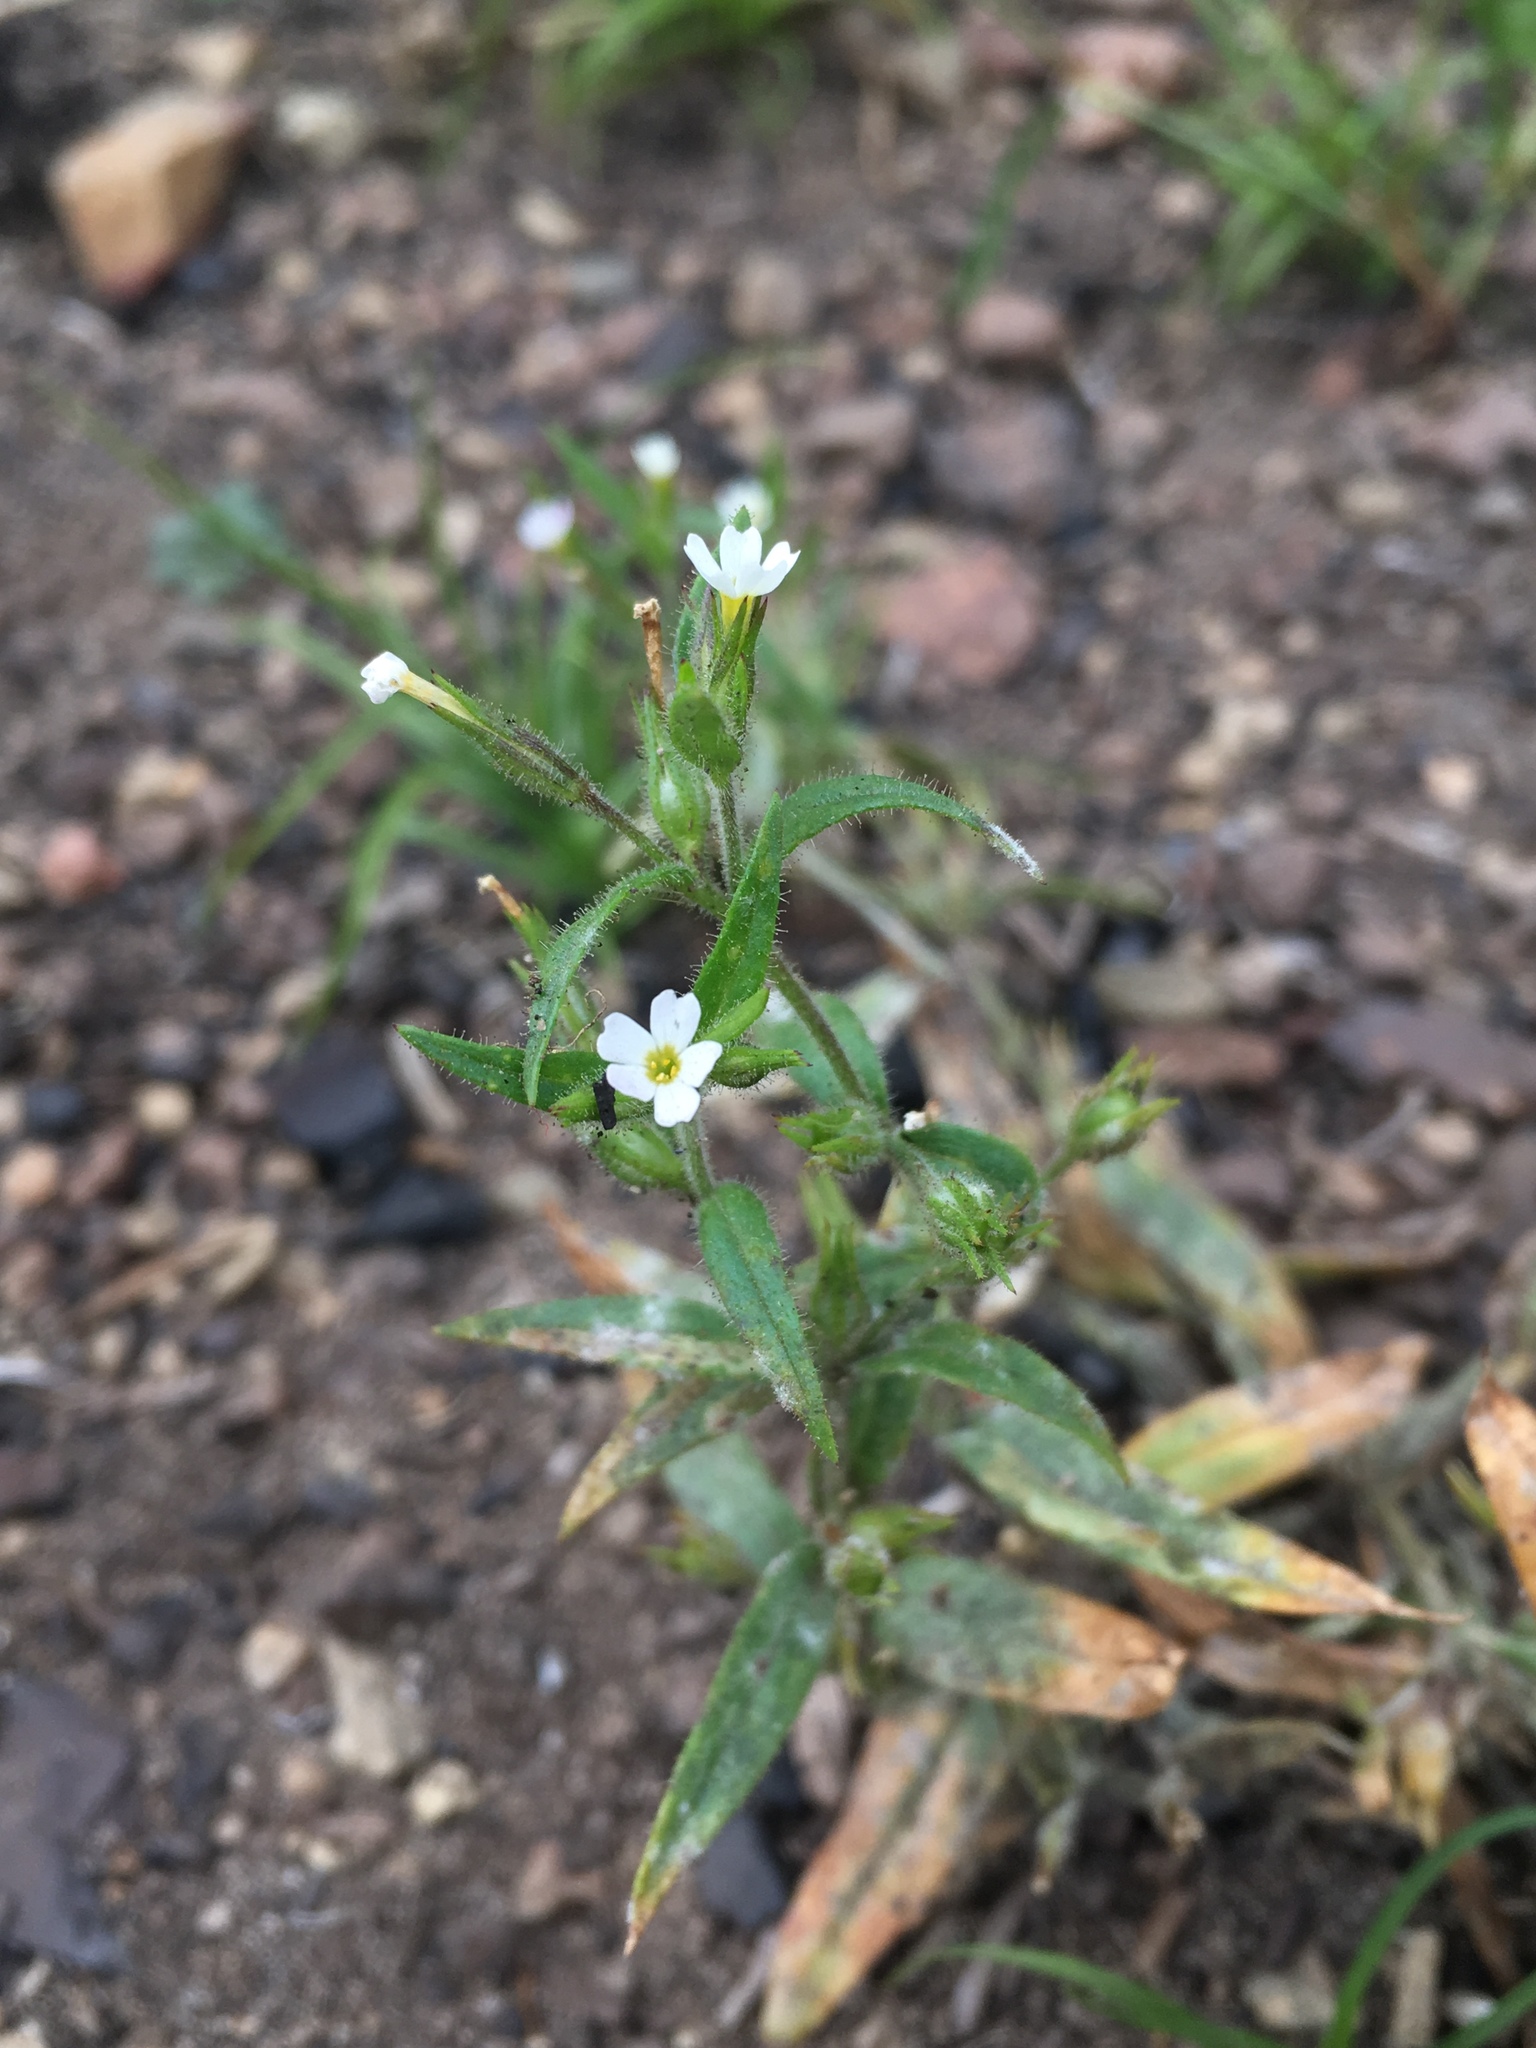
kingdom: Plantae
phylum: Tracheophyta
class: Magnoliopsida
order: Ericales
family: Polemoniaceae
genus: Phlox
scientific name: Phlox gracilis
